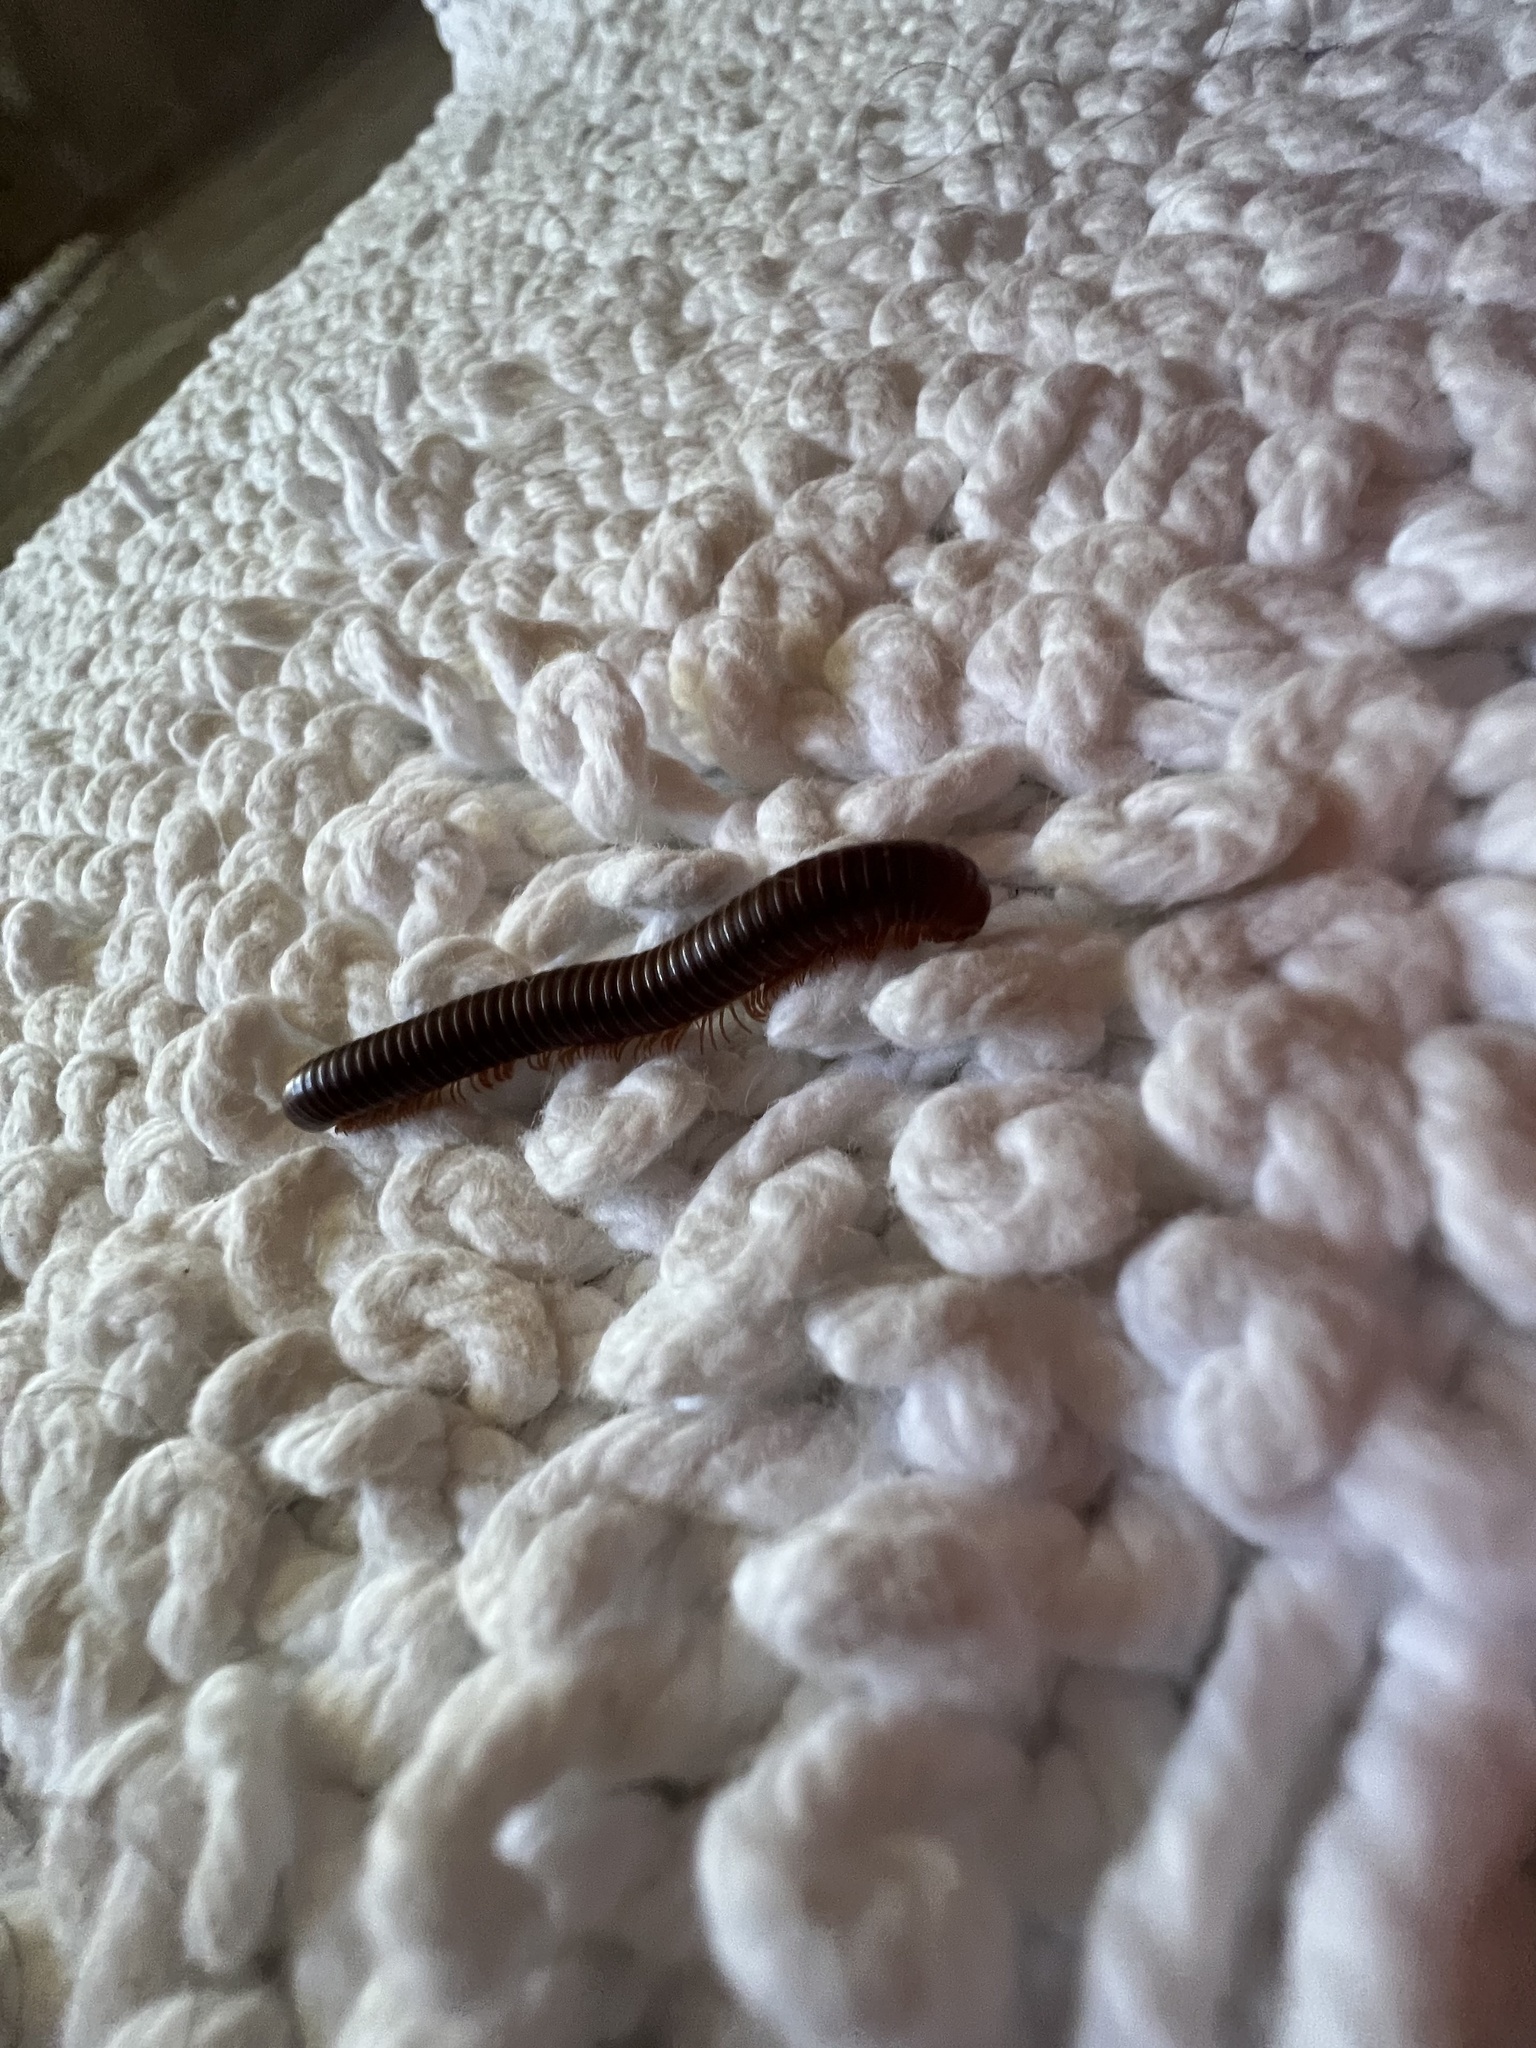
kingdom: Animalia
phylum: Arthropoda
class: Diplopoda
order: Spirobolida
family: Pachybolidae
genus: Trigoniulus
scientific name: Trigoniulus corallinus
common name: Millipede
